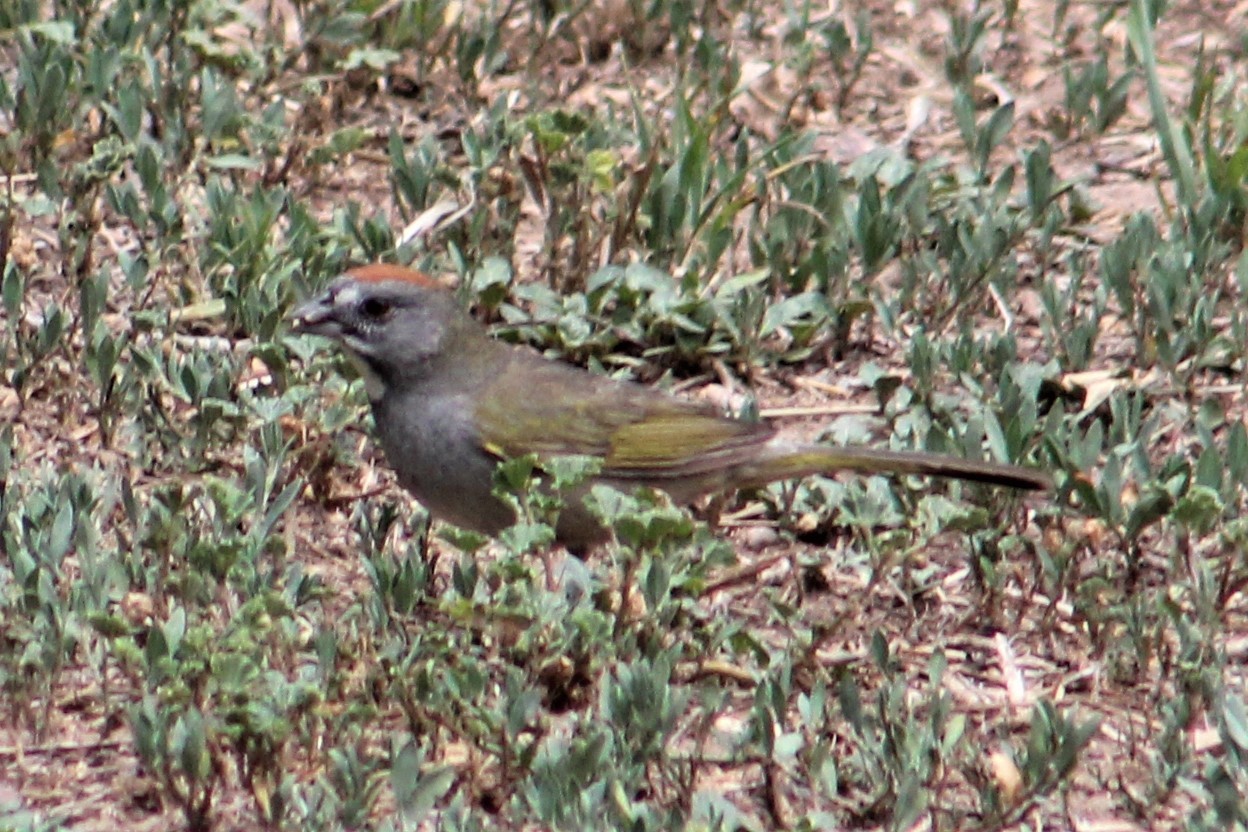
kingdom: Animalia
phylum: Chordata
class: Aves
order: Passeriformes
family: Passerellidae
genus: Pipilo
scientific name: Pipilo chlorurus
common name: Green-tailed towhee
